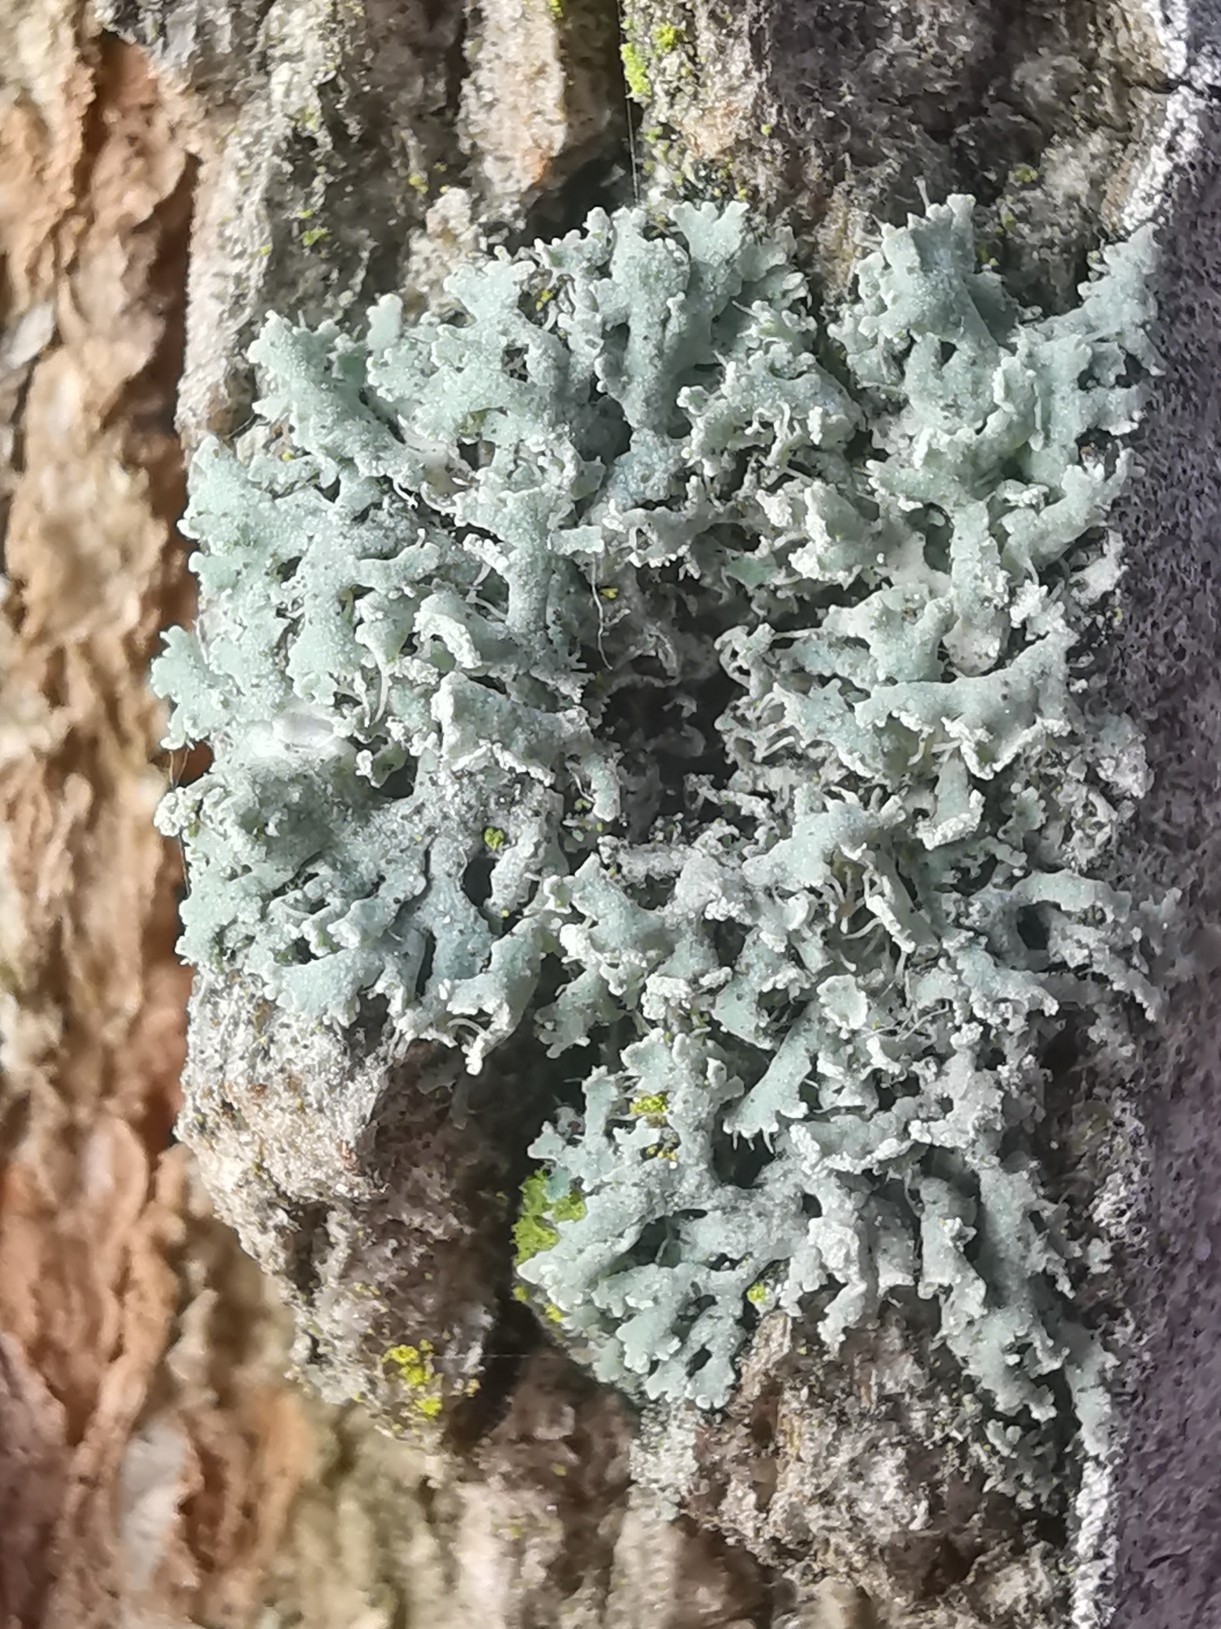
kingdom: Fungi
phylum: Ascomycota
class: Lecanoromycetes
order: Caliciales
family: Physciaceae
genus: Physcia
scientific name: Physcia tenella
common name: Fringed rosette lichen
